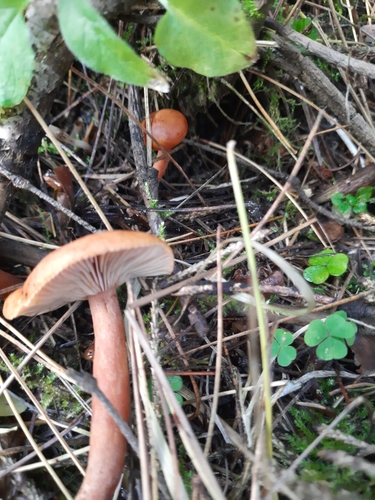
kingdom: Fungi
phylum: Basidiomycota
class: Agaricomycetes
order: Russulales
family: Russulaceae
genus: Lactarius
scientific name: Lactarius
